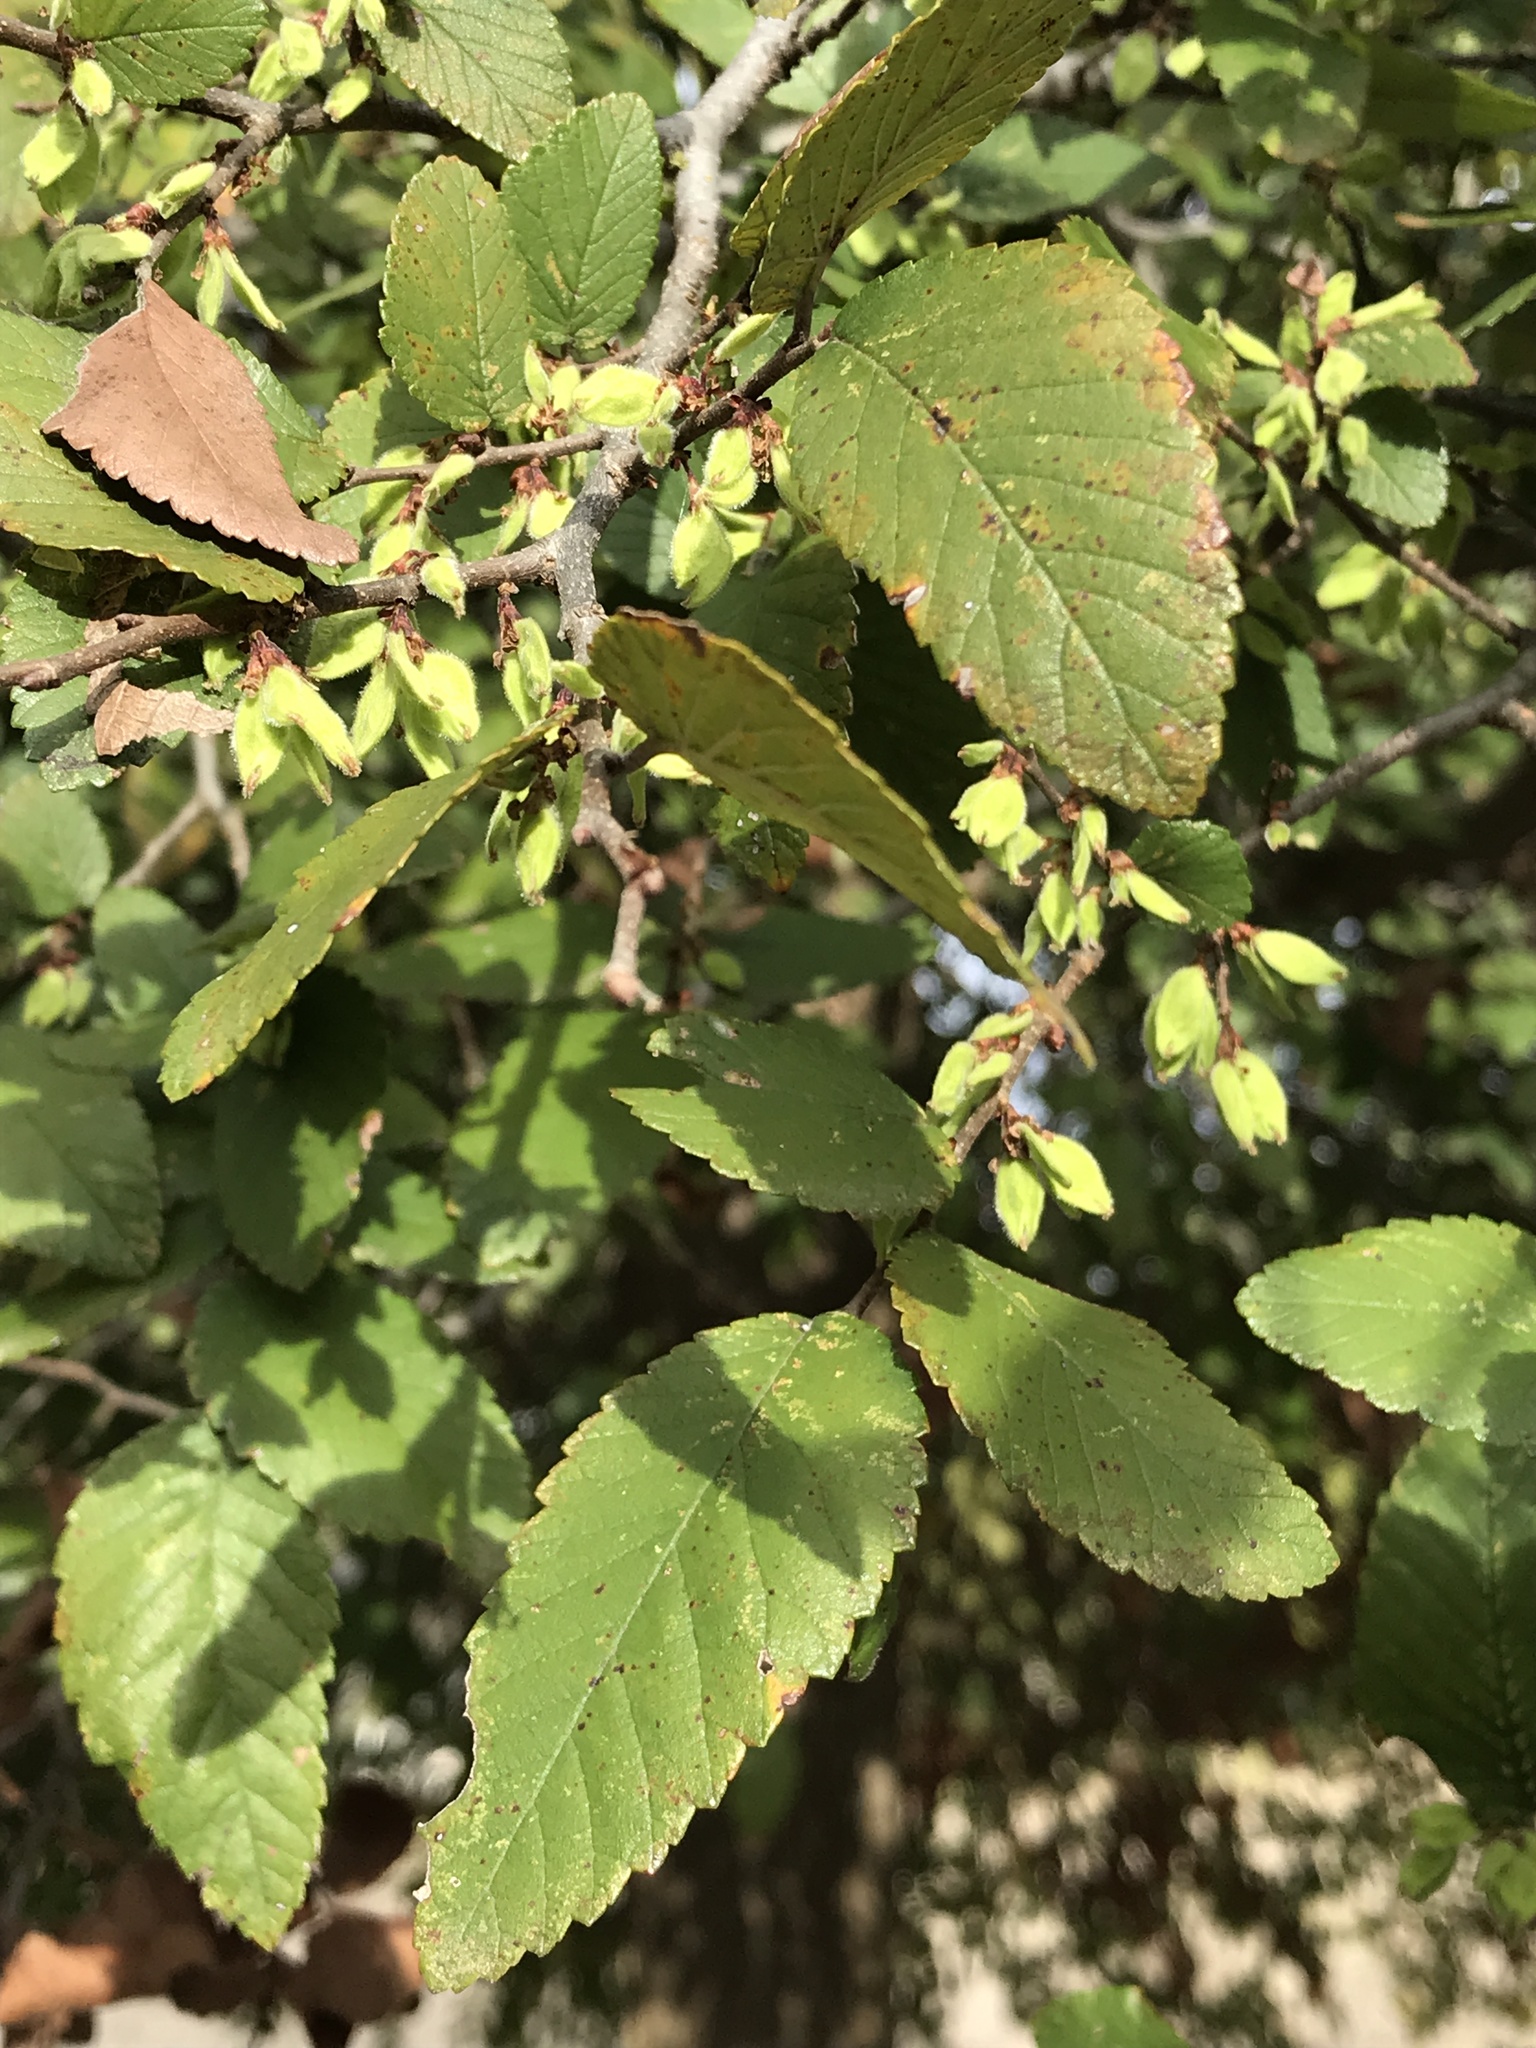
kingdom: Plantae
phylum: Tracheophyta
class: Magnoliopsida
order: Rosales
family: Ulmaceae
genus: Ulmus
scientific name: Ulmus crassifolia
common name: Basket elm
